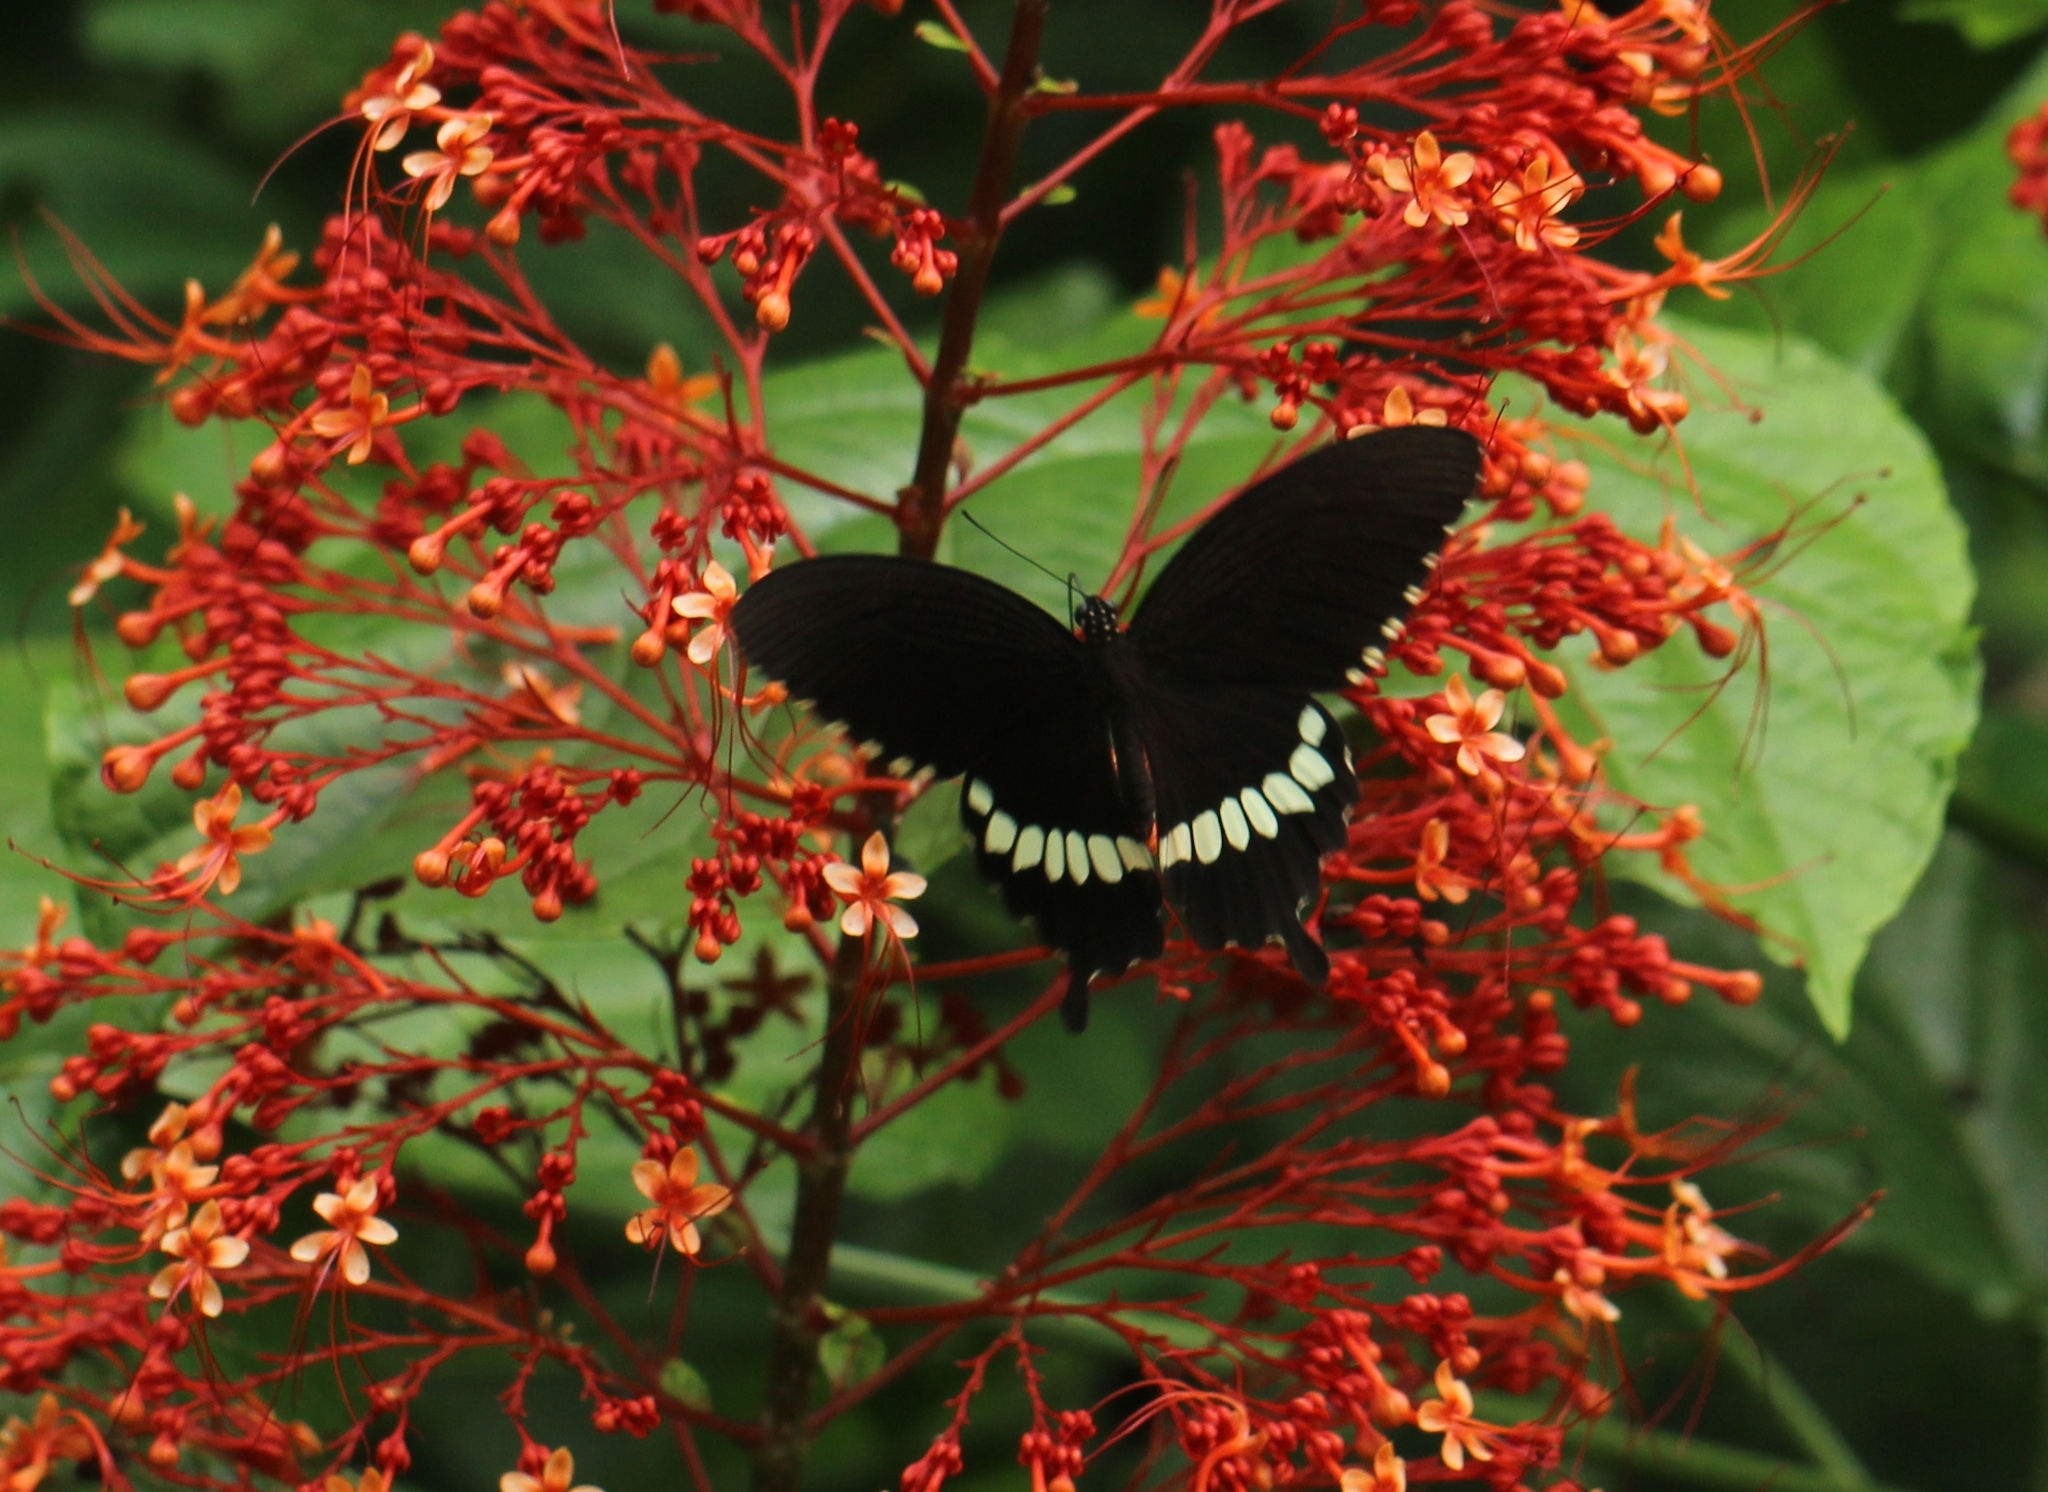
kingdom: Animalia
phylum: Arthropoda
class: Insecta
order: Lepidoptera
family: Papilionidae
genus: Papilio
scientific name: Papilio polytes
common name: Common mormon
